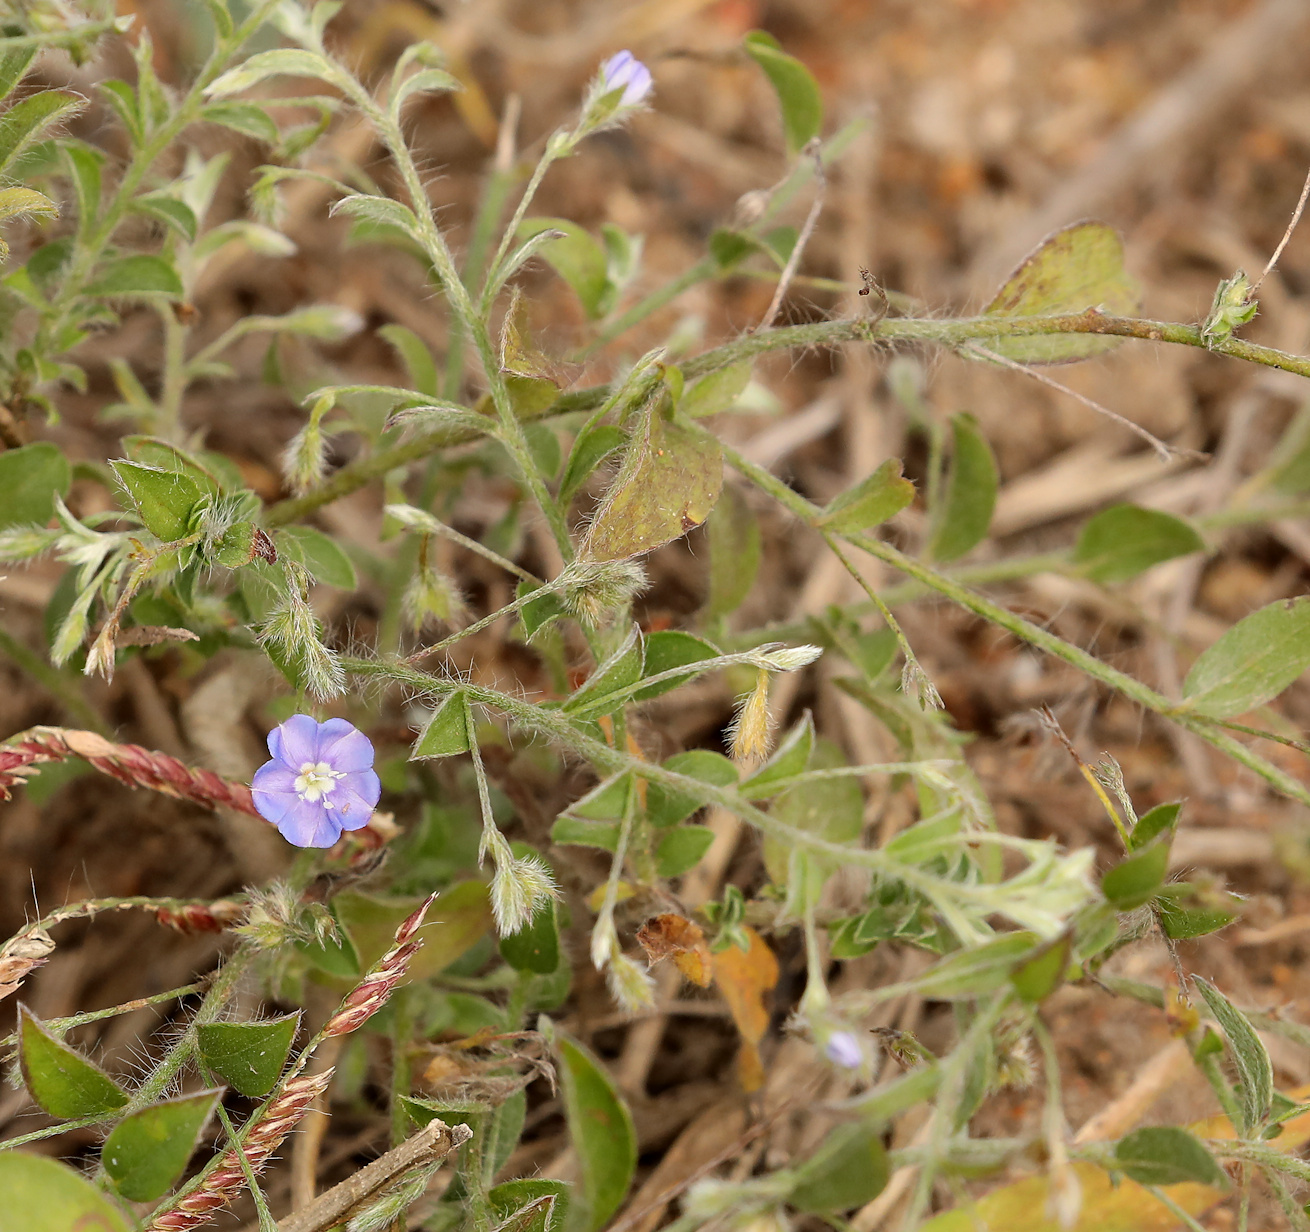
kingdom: Plantae
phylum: Tracheophyta
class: Magnoliopsida
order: Solanales
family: Convolvulaceae
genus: Evolvulus
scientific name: Evolvulus alsinoides
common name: Slender dwarf morning-glory
